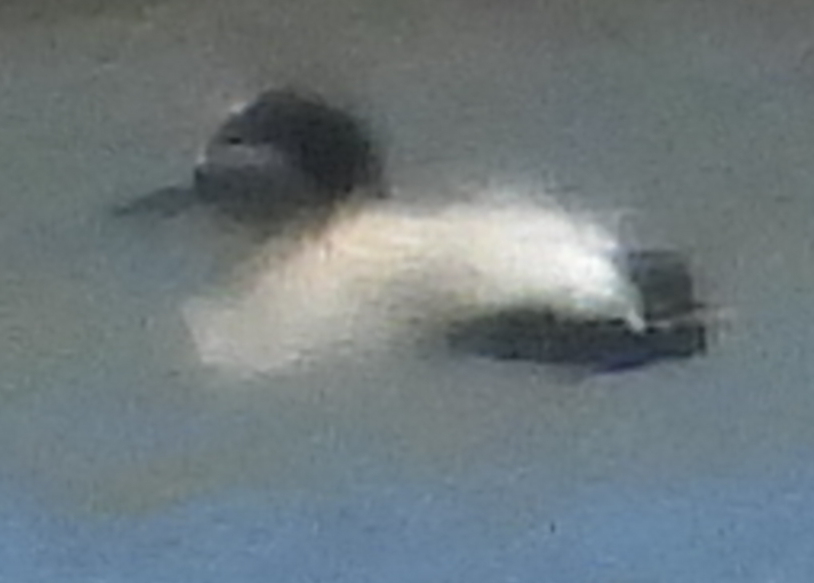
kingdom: Animalia
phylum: Chordata
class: Aves
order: Anseriformes
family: Anatidae
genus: Anas
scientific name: Anas crecca
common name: Eurasian teal
